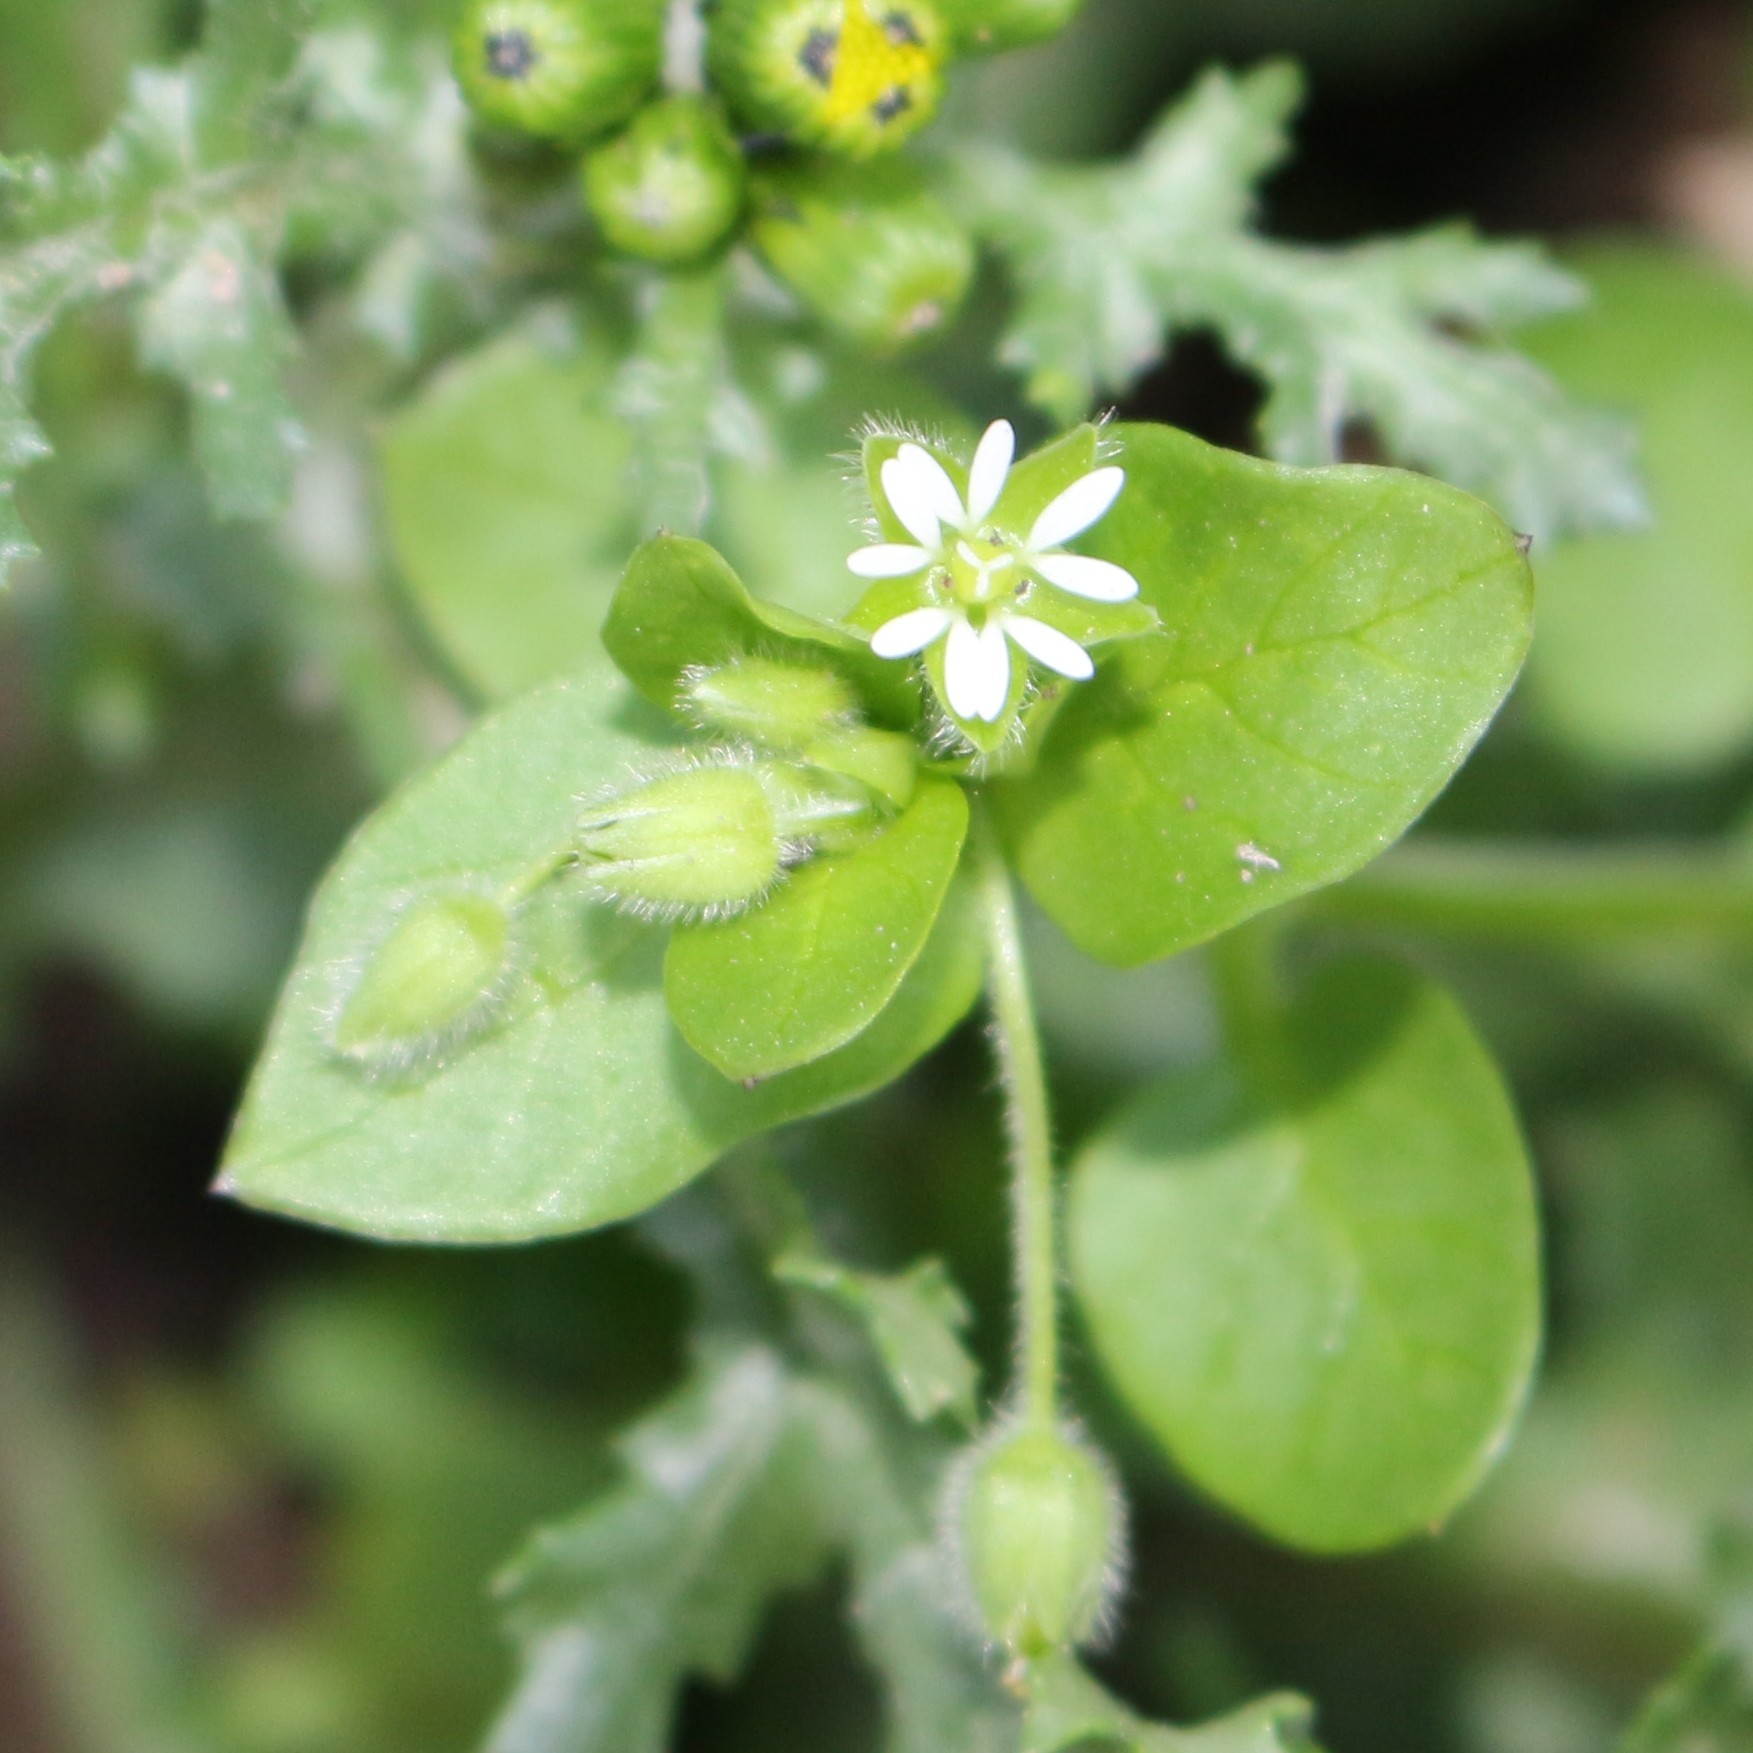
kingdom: Plantae
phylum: Tracheophyta
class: Magnoliopsida
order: Caryophyllales
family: Caryophyllaceae
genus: Stellaria
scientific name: Stellaria media
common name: Common chickweed
